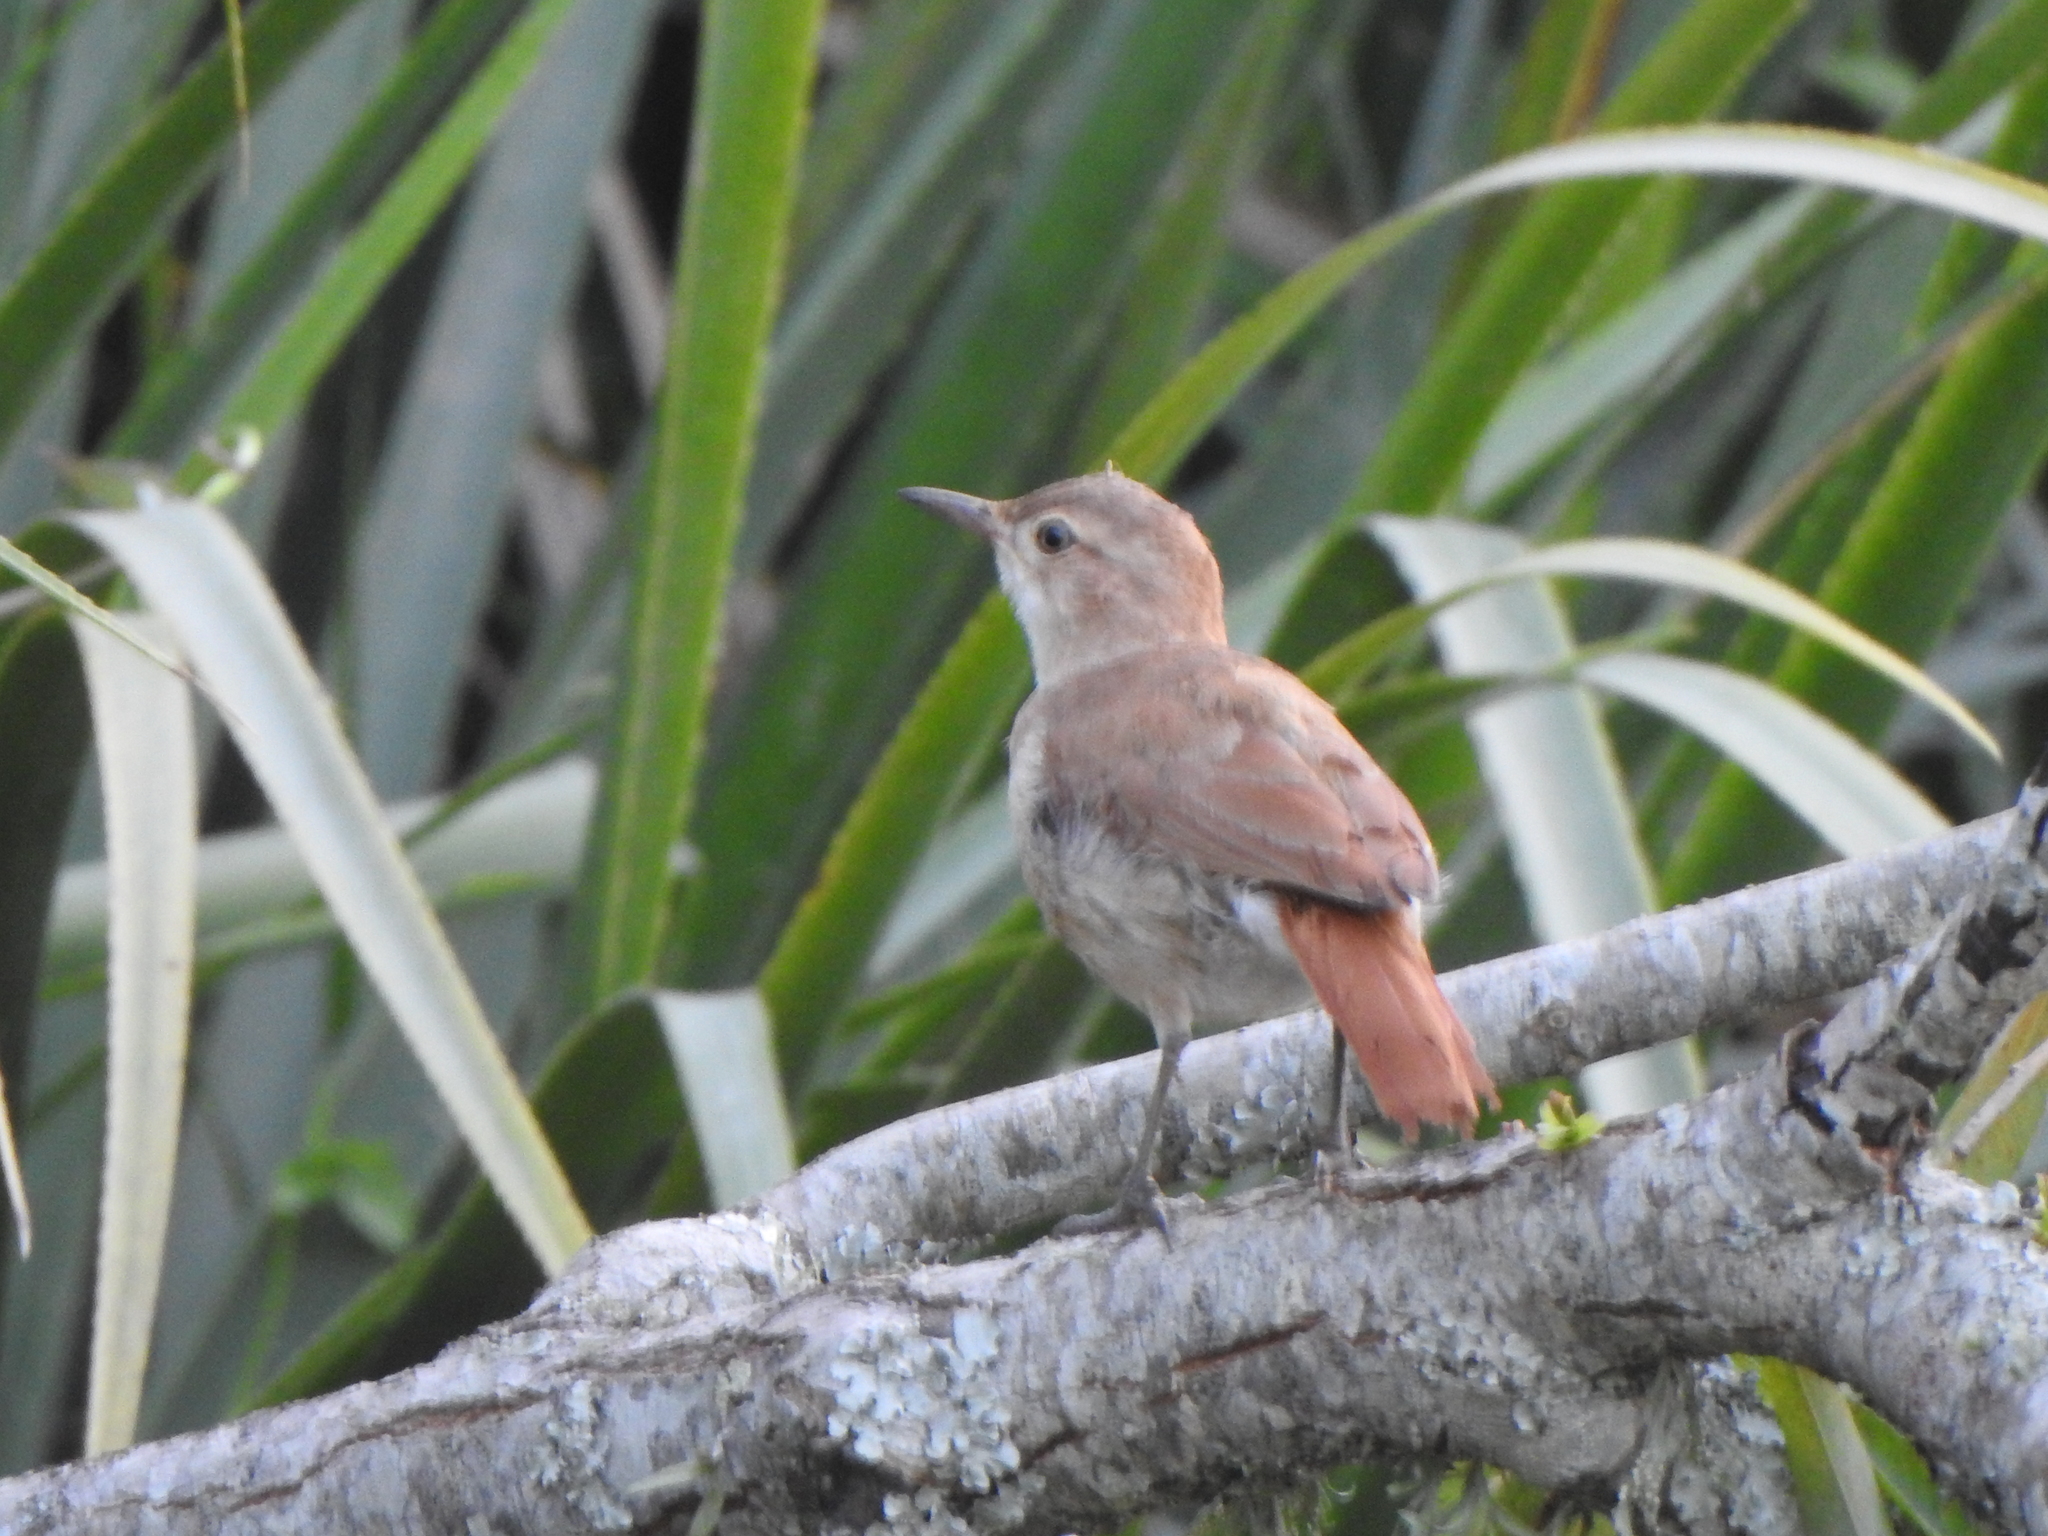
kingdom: Animalia
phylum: Chordata
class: Aves
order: Passeriformes
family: Furnariidae
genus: Furnarius
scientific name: Furnarius rufus
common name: Rufous hornero
